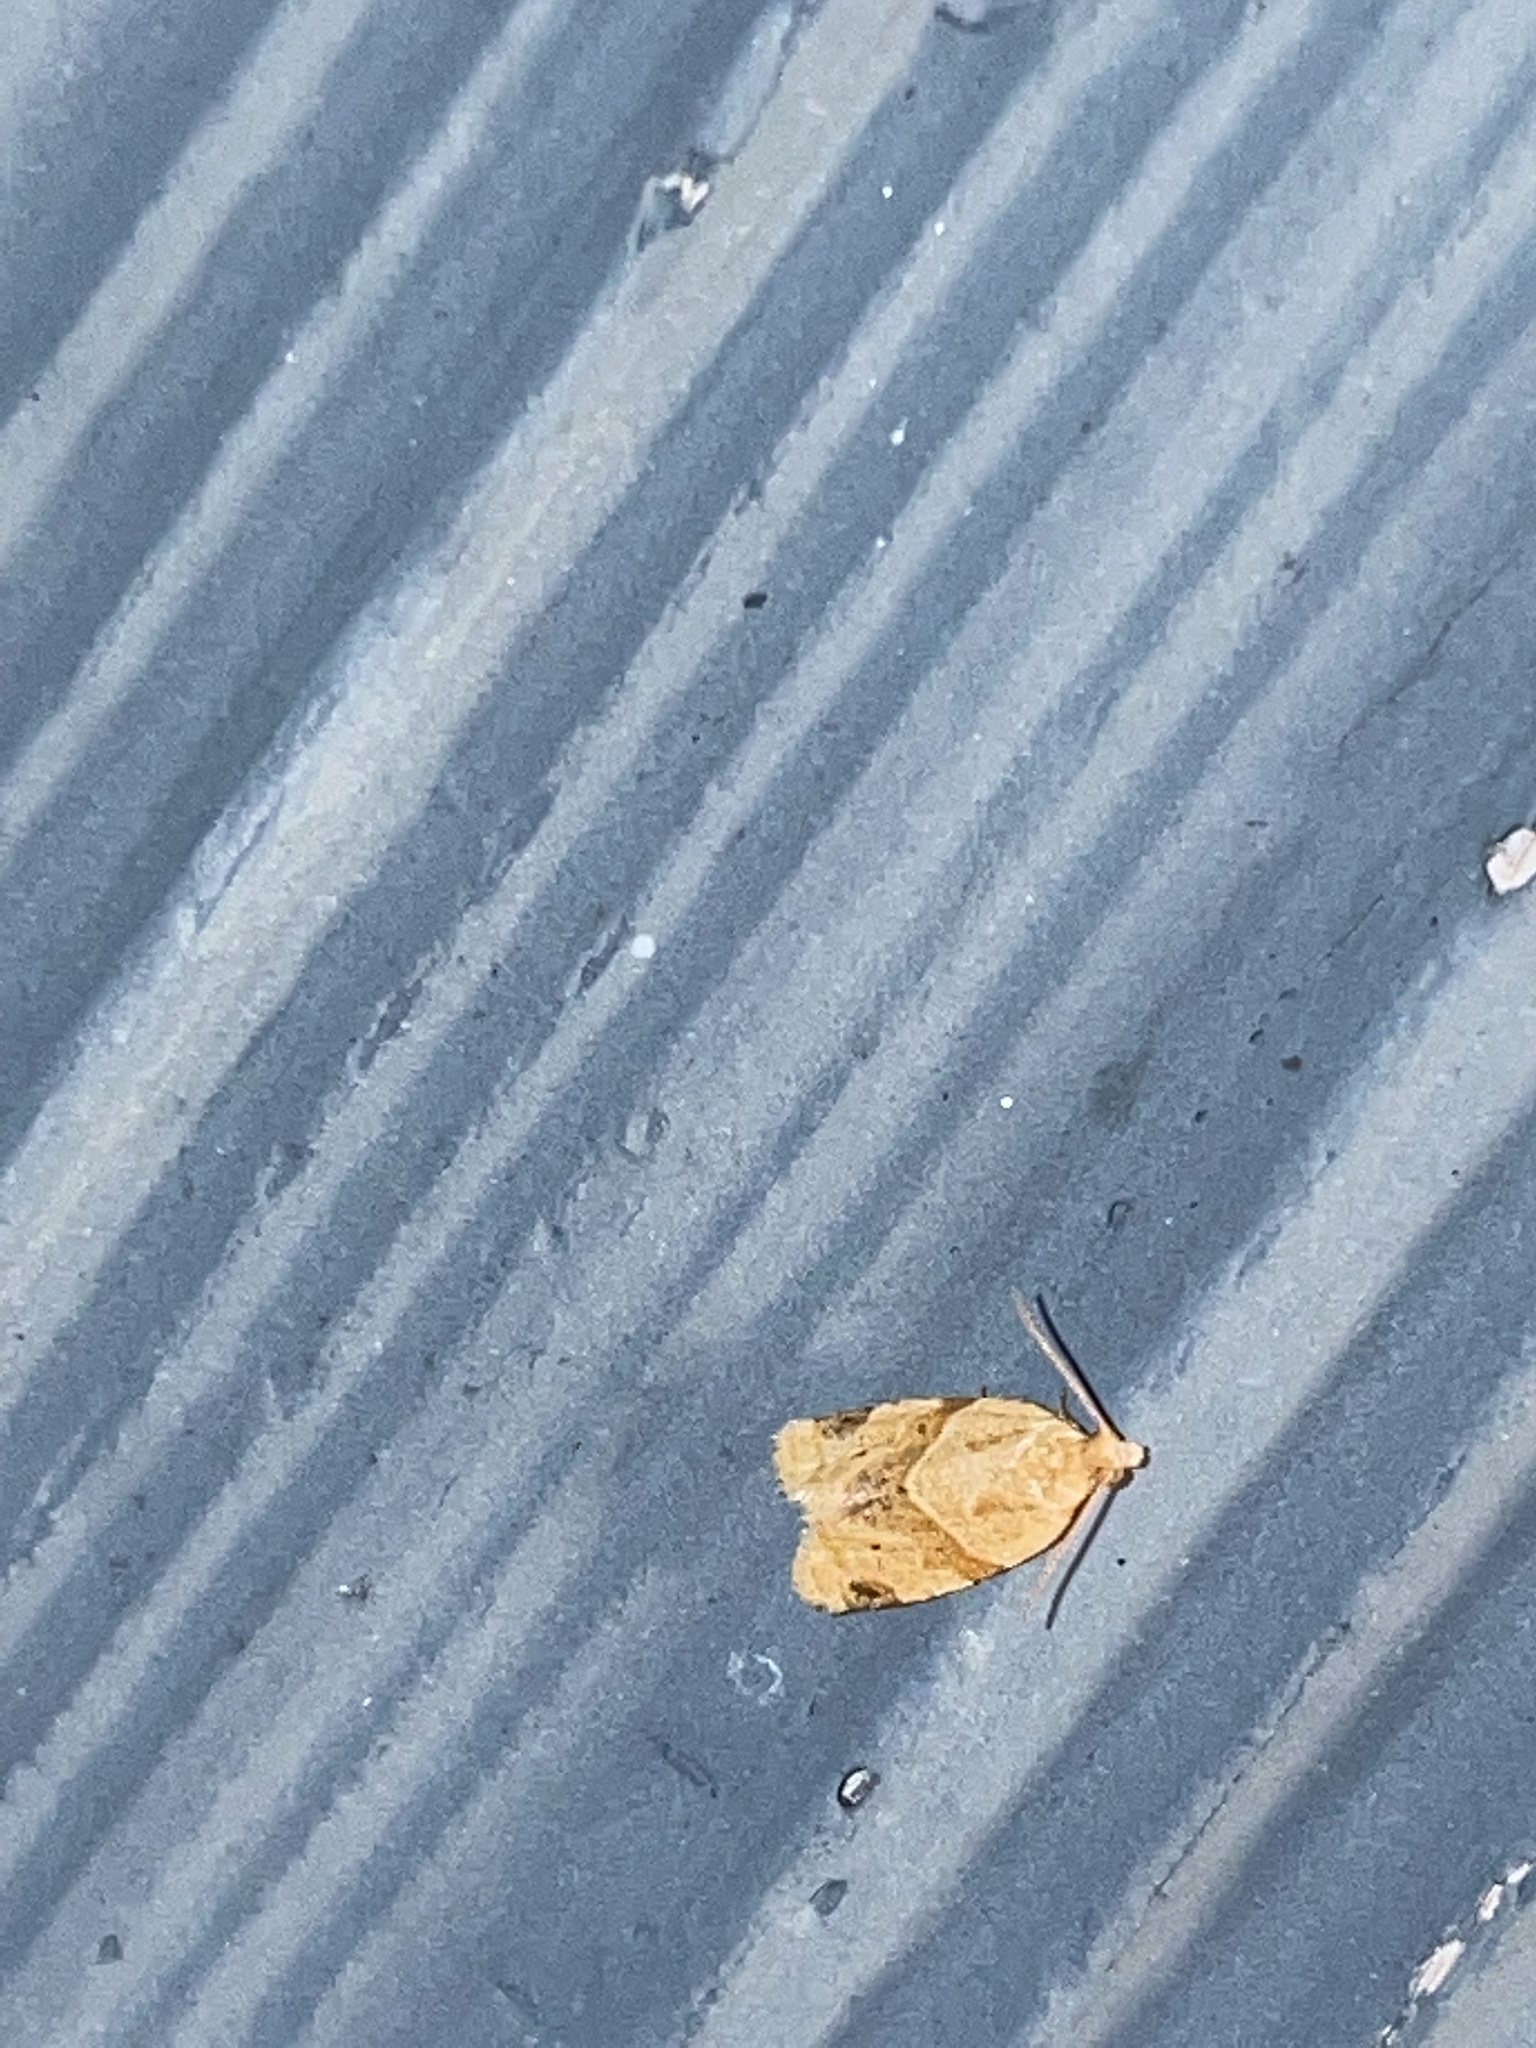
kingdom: Animalia
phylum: Arthropoda
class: Insecta
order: Lepidoptera
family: Tortricidae
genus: Clepsis
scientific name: Clepsis peritana
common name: Garden tortrix
